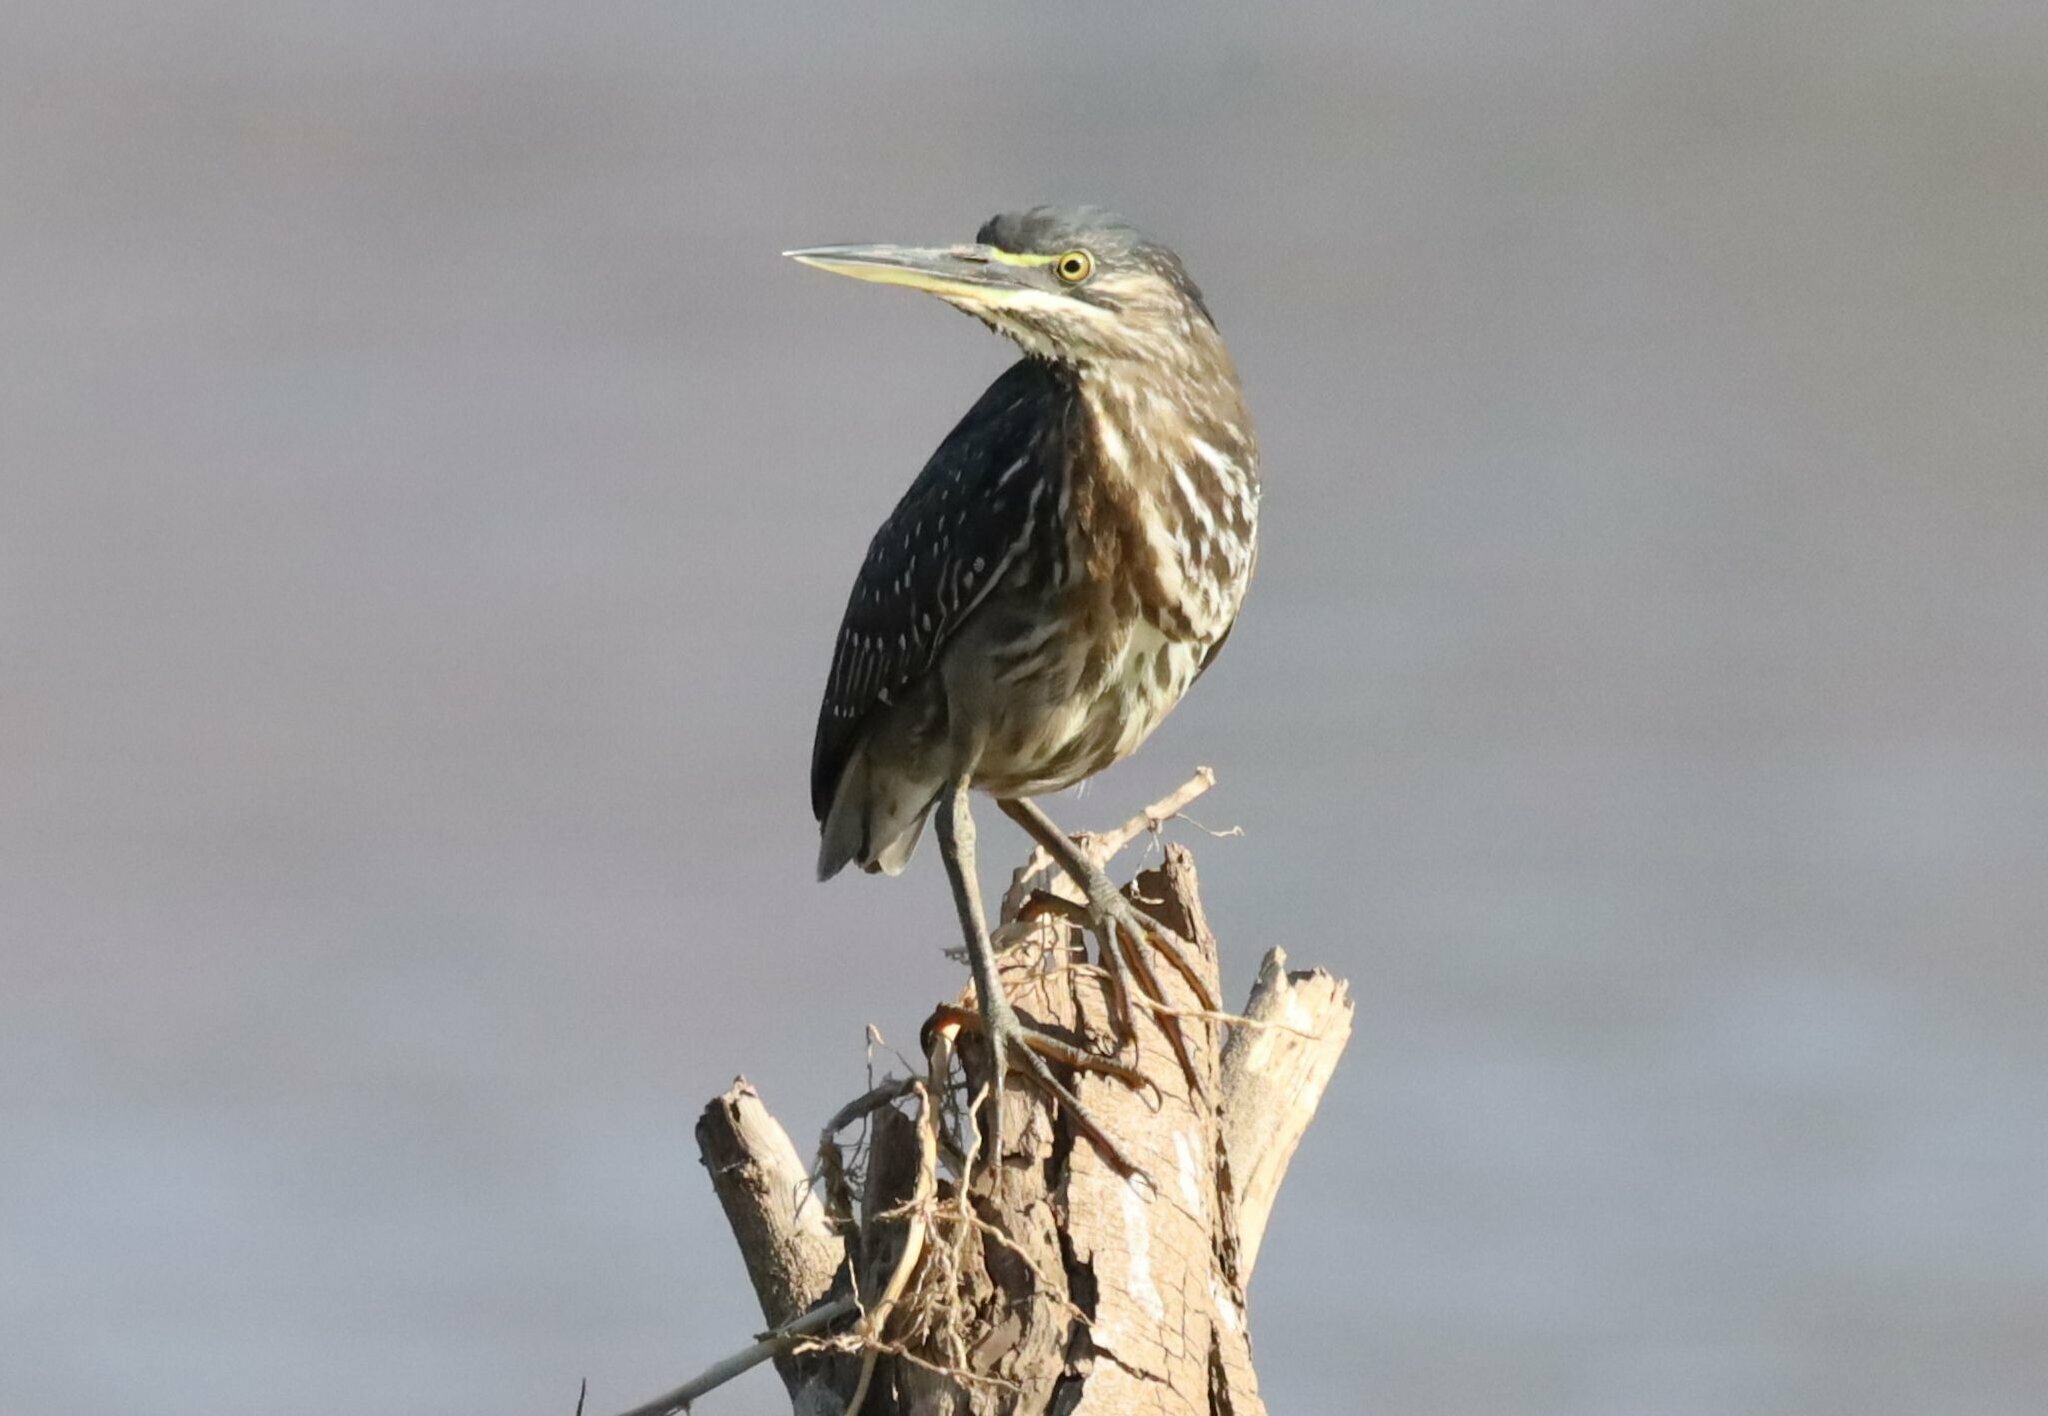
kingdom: Animalia
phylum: Chordata
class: Aves
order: Pelecaniformes
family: Ardeidae
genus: Butorides
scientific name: Butorides striata
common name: Striated heron
